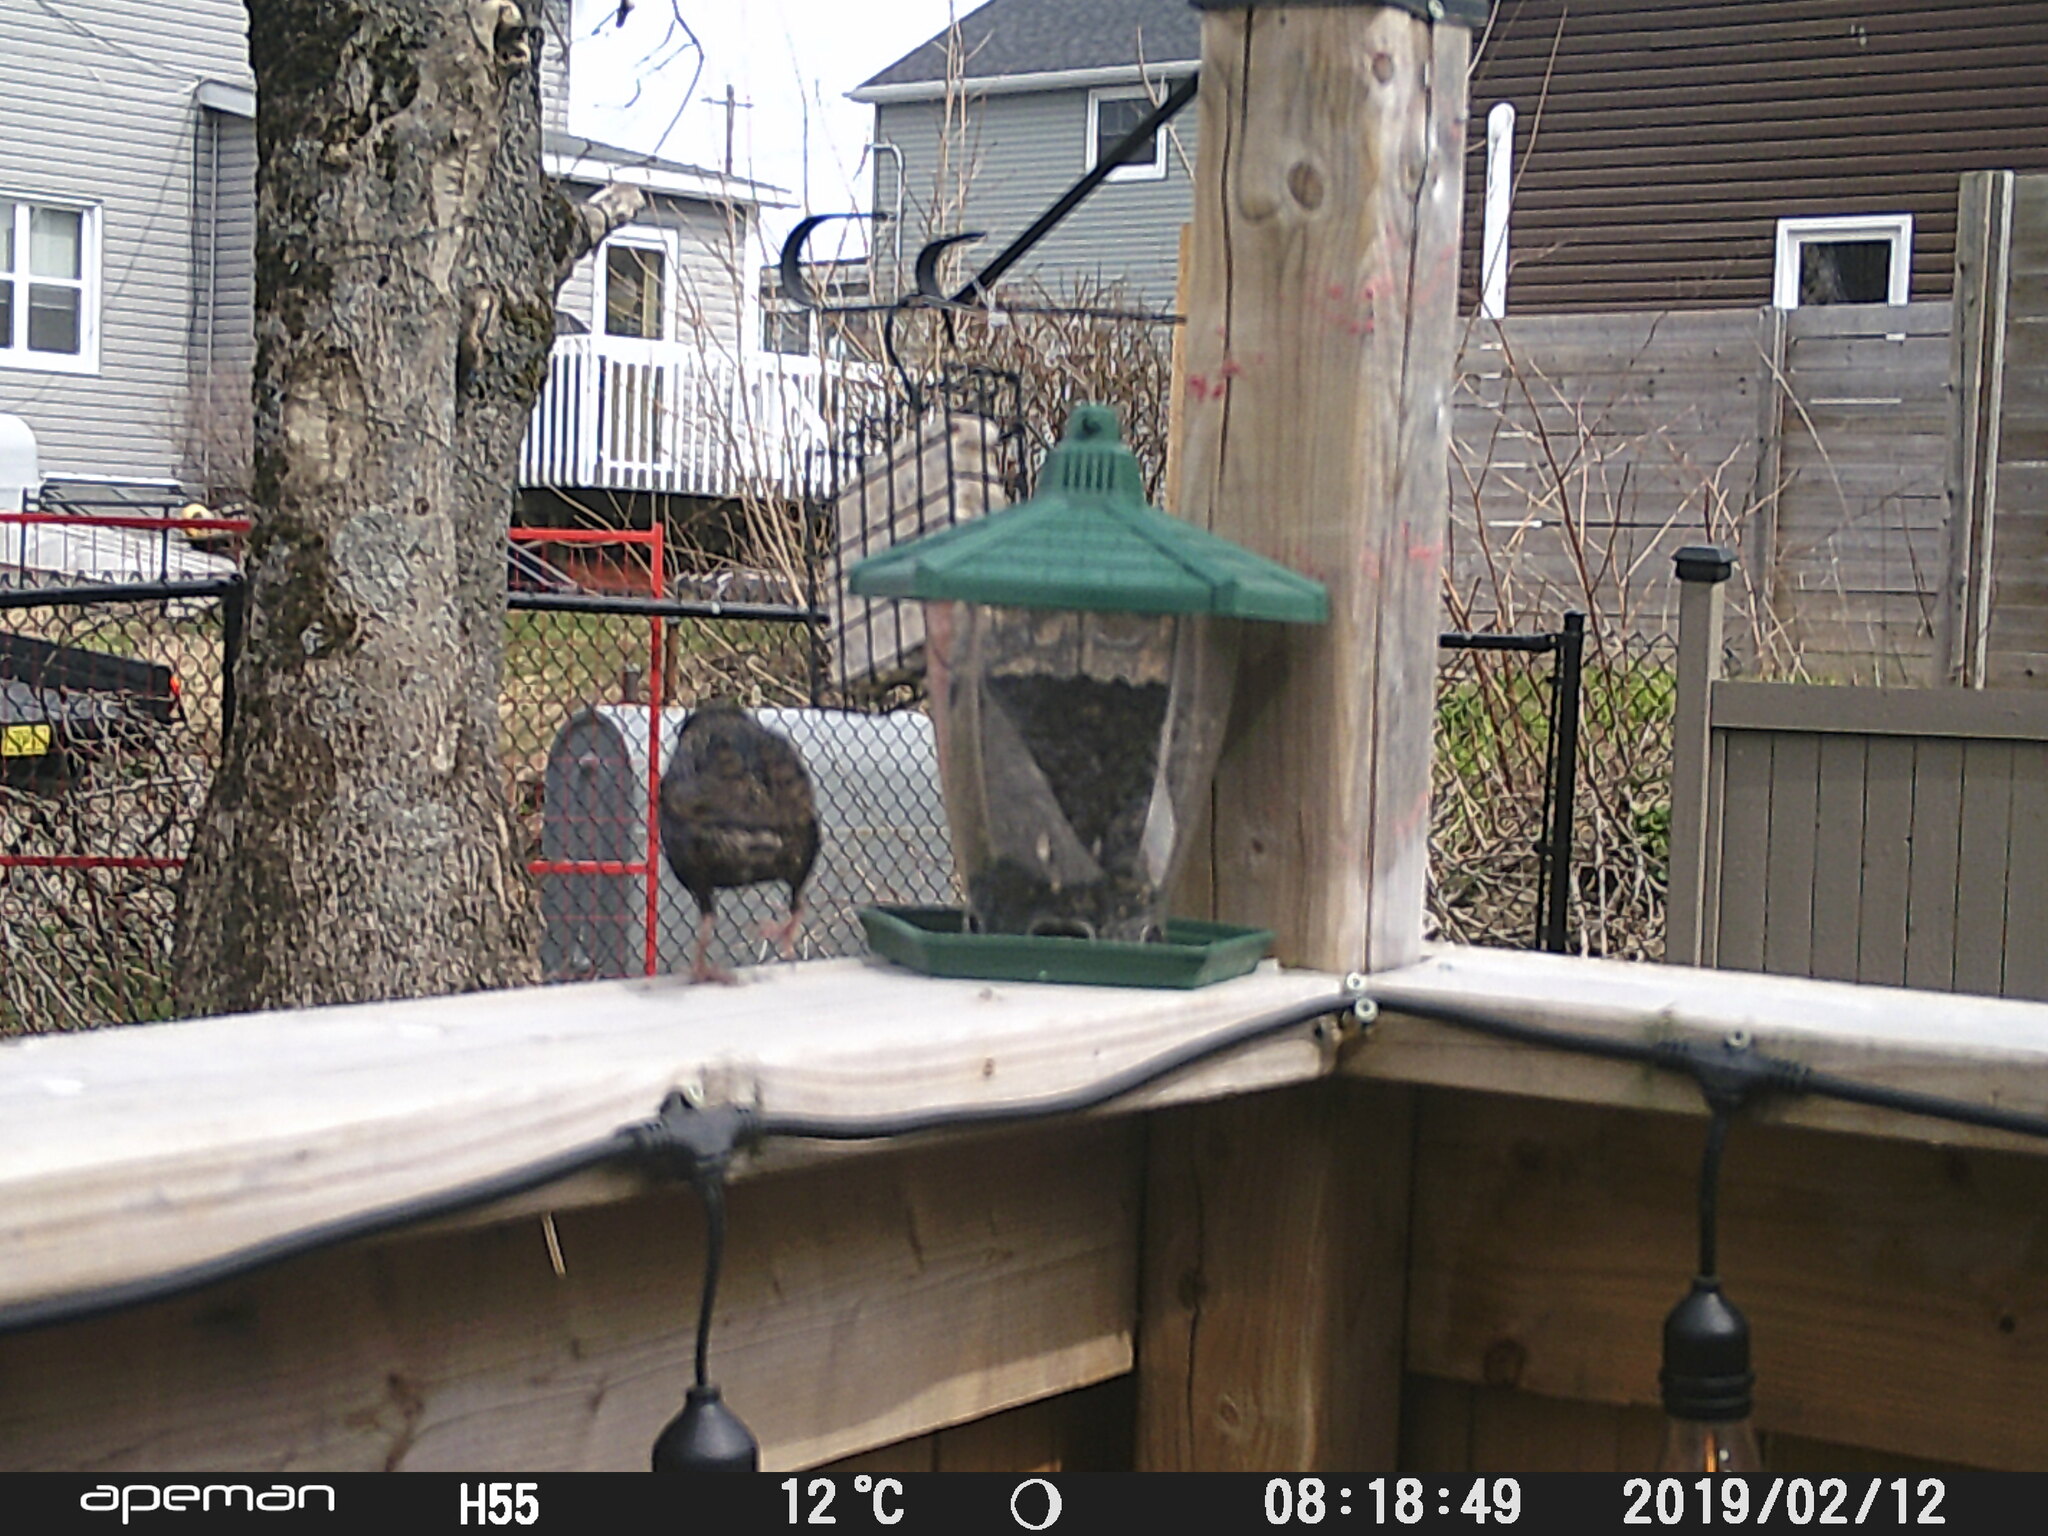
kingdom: Animalia
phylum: Chordata
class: Aves
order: Passeriformes
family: Sturnidae
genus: Sturnus
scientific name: Sturnus vulgaris
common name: Common starling
